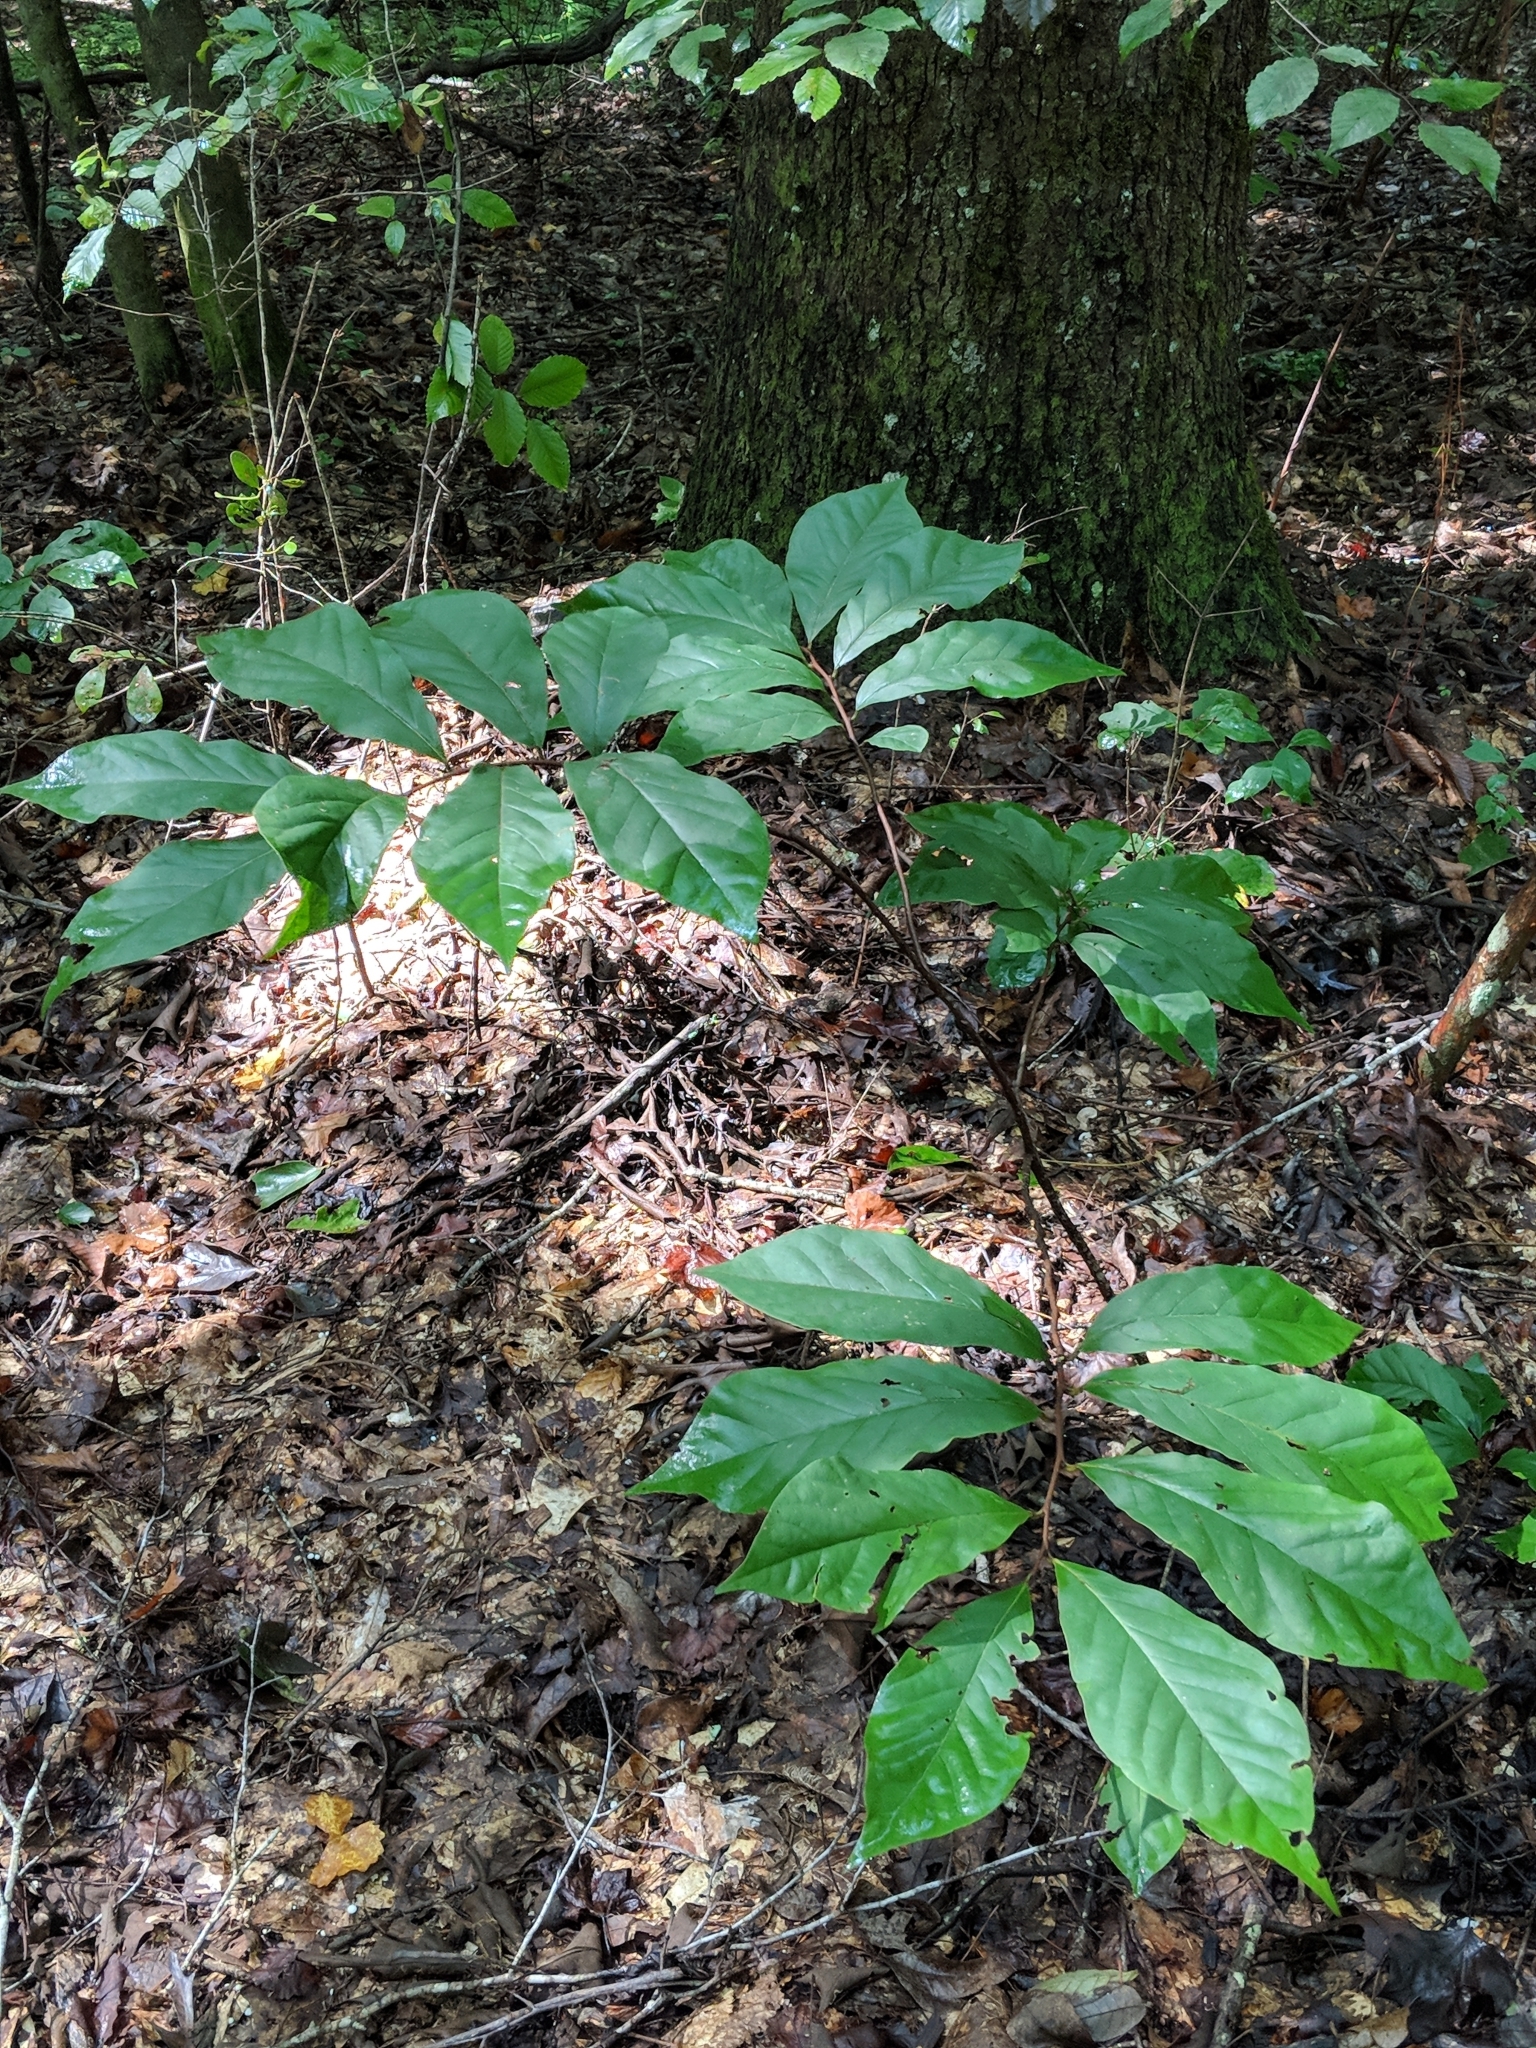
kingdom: Plantae
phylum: Tracheophyta
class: Magnoliopsida
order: Magnoliales
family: Annonaceae
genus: Asimina
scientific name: Asimina parviflora
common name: Dwarf pawpaw
